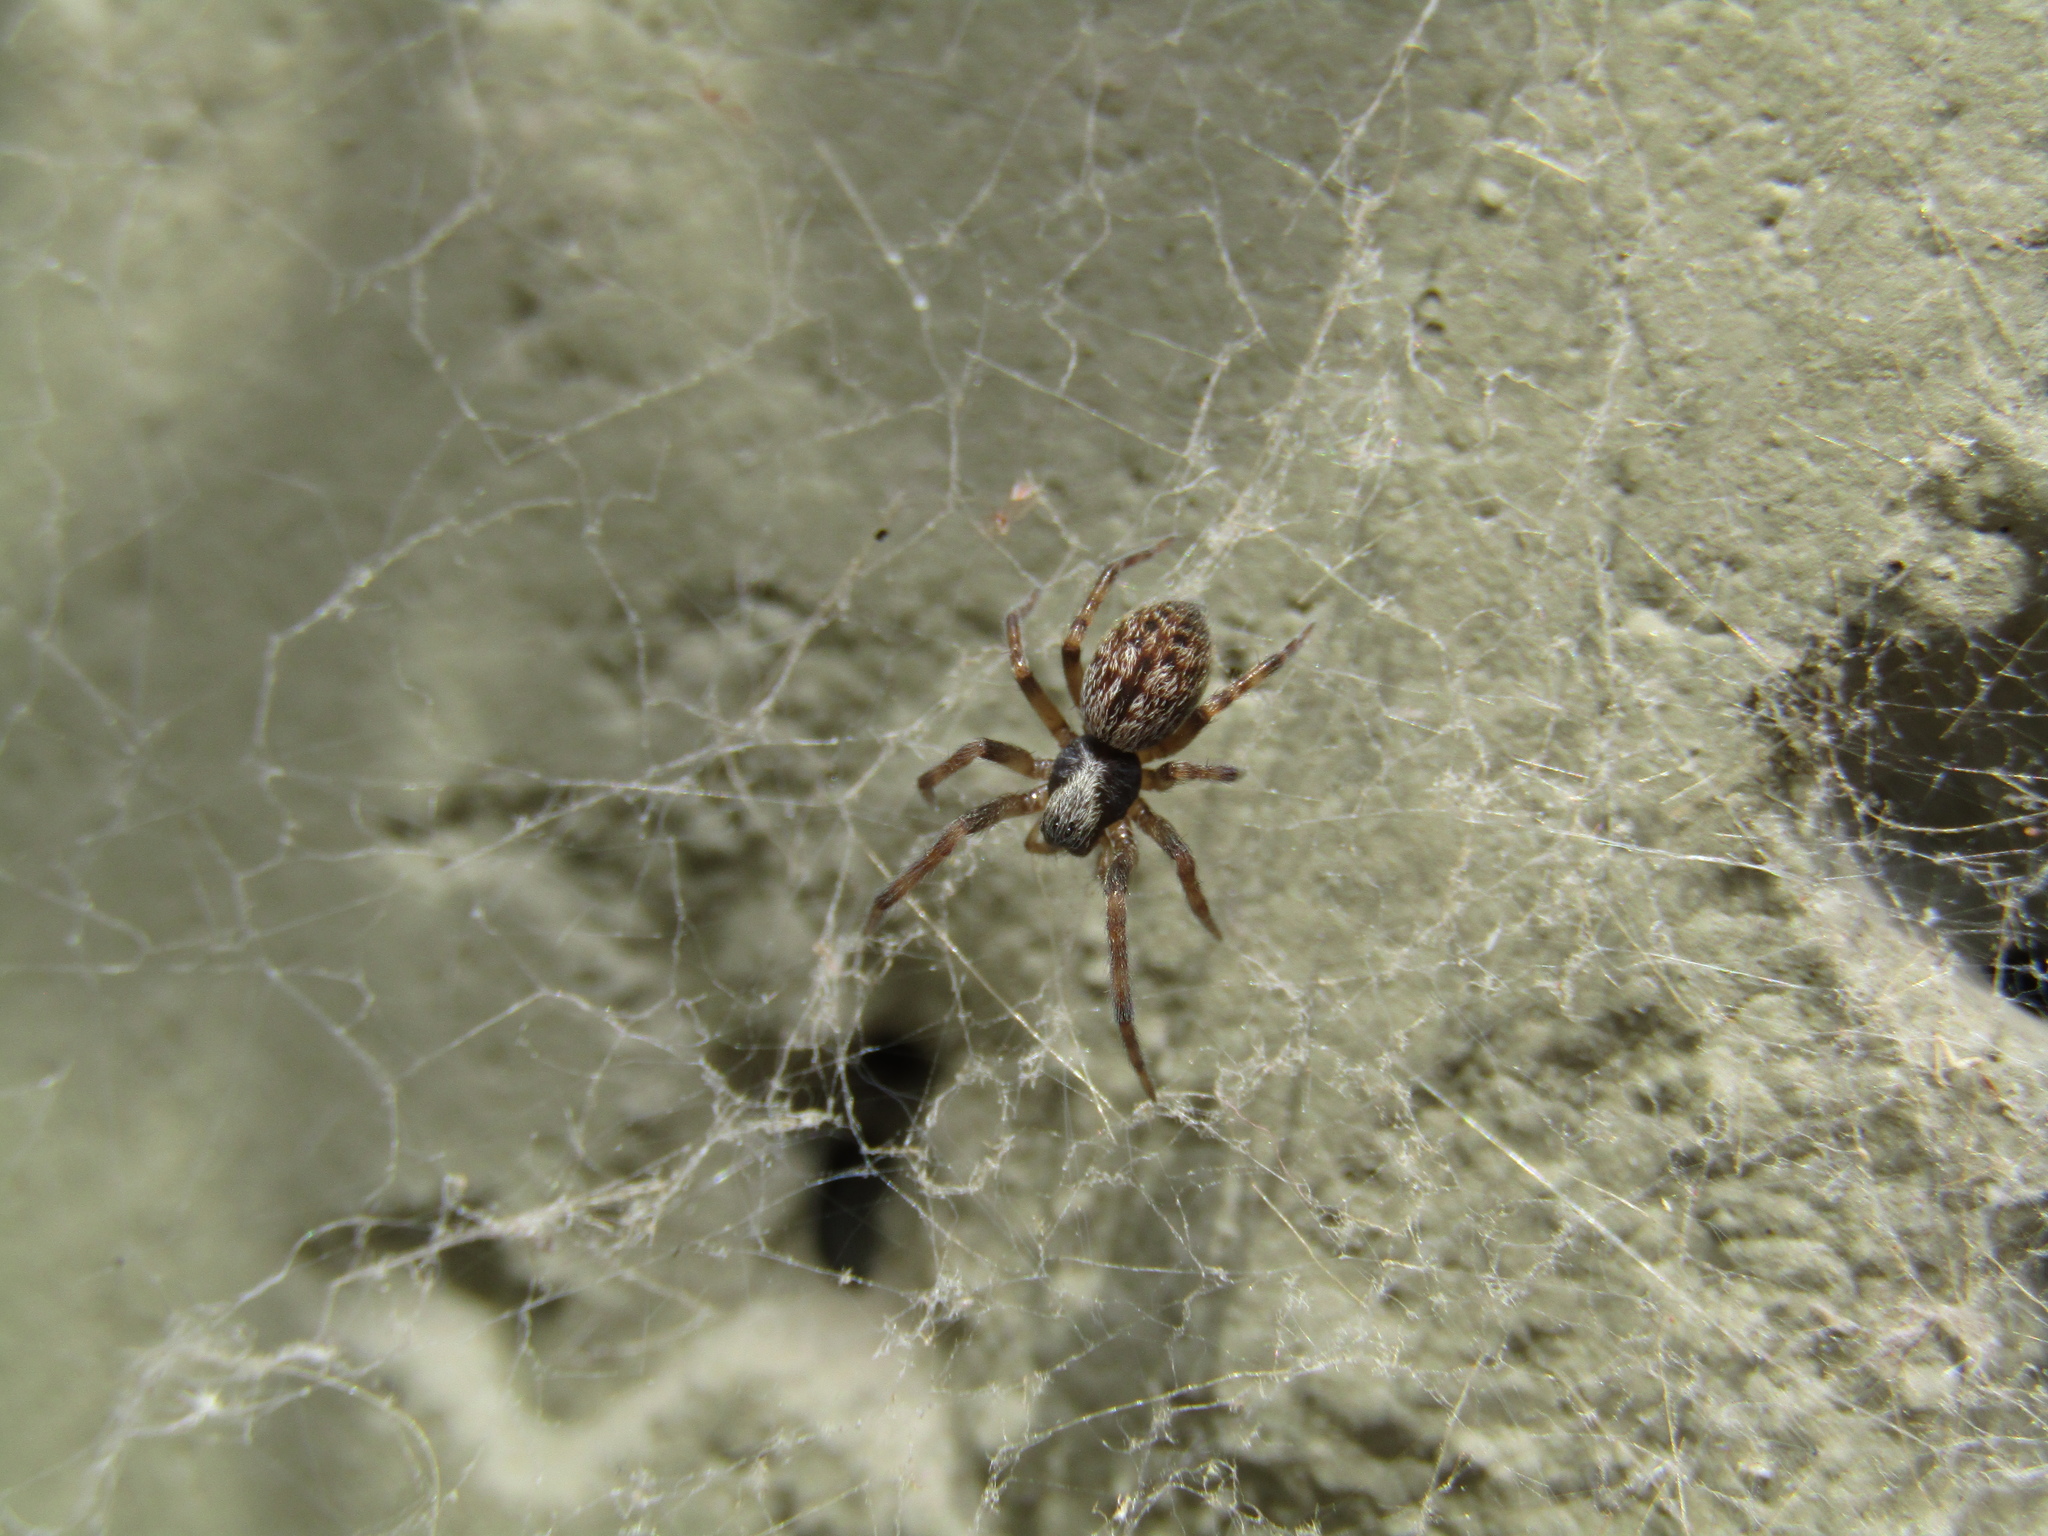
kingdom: Animalia
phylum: Arthropoda
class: Arachnida
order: Araneae
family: Desidae
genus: Badumna
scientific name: Badumna longinqua
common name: Gray house spider
